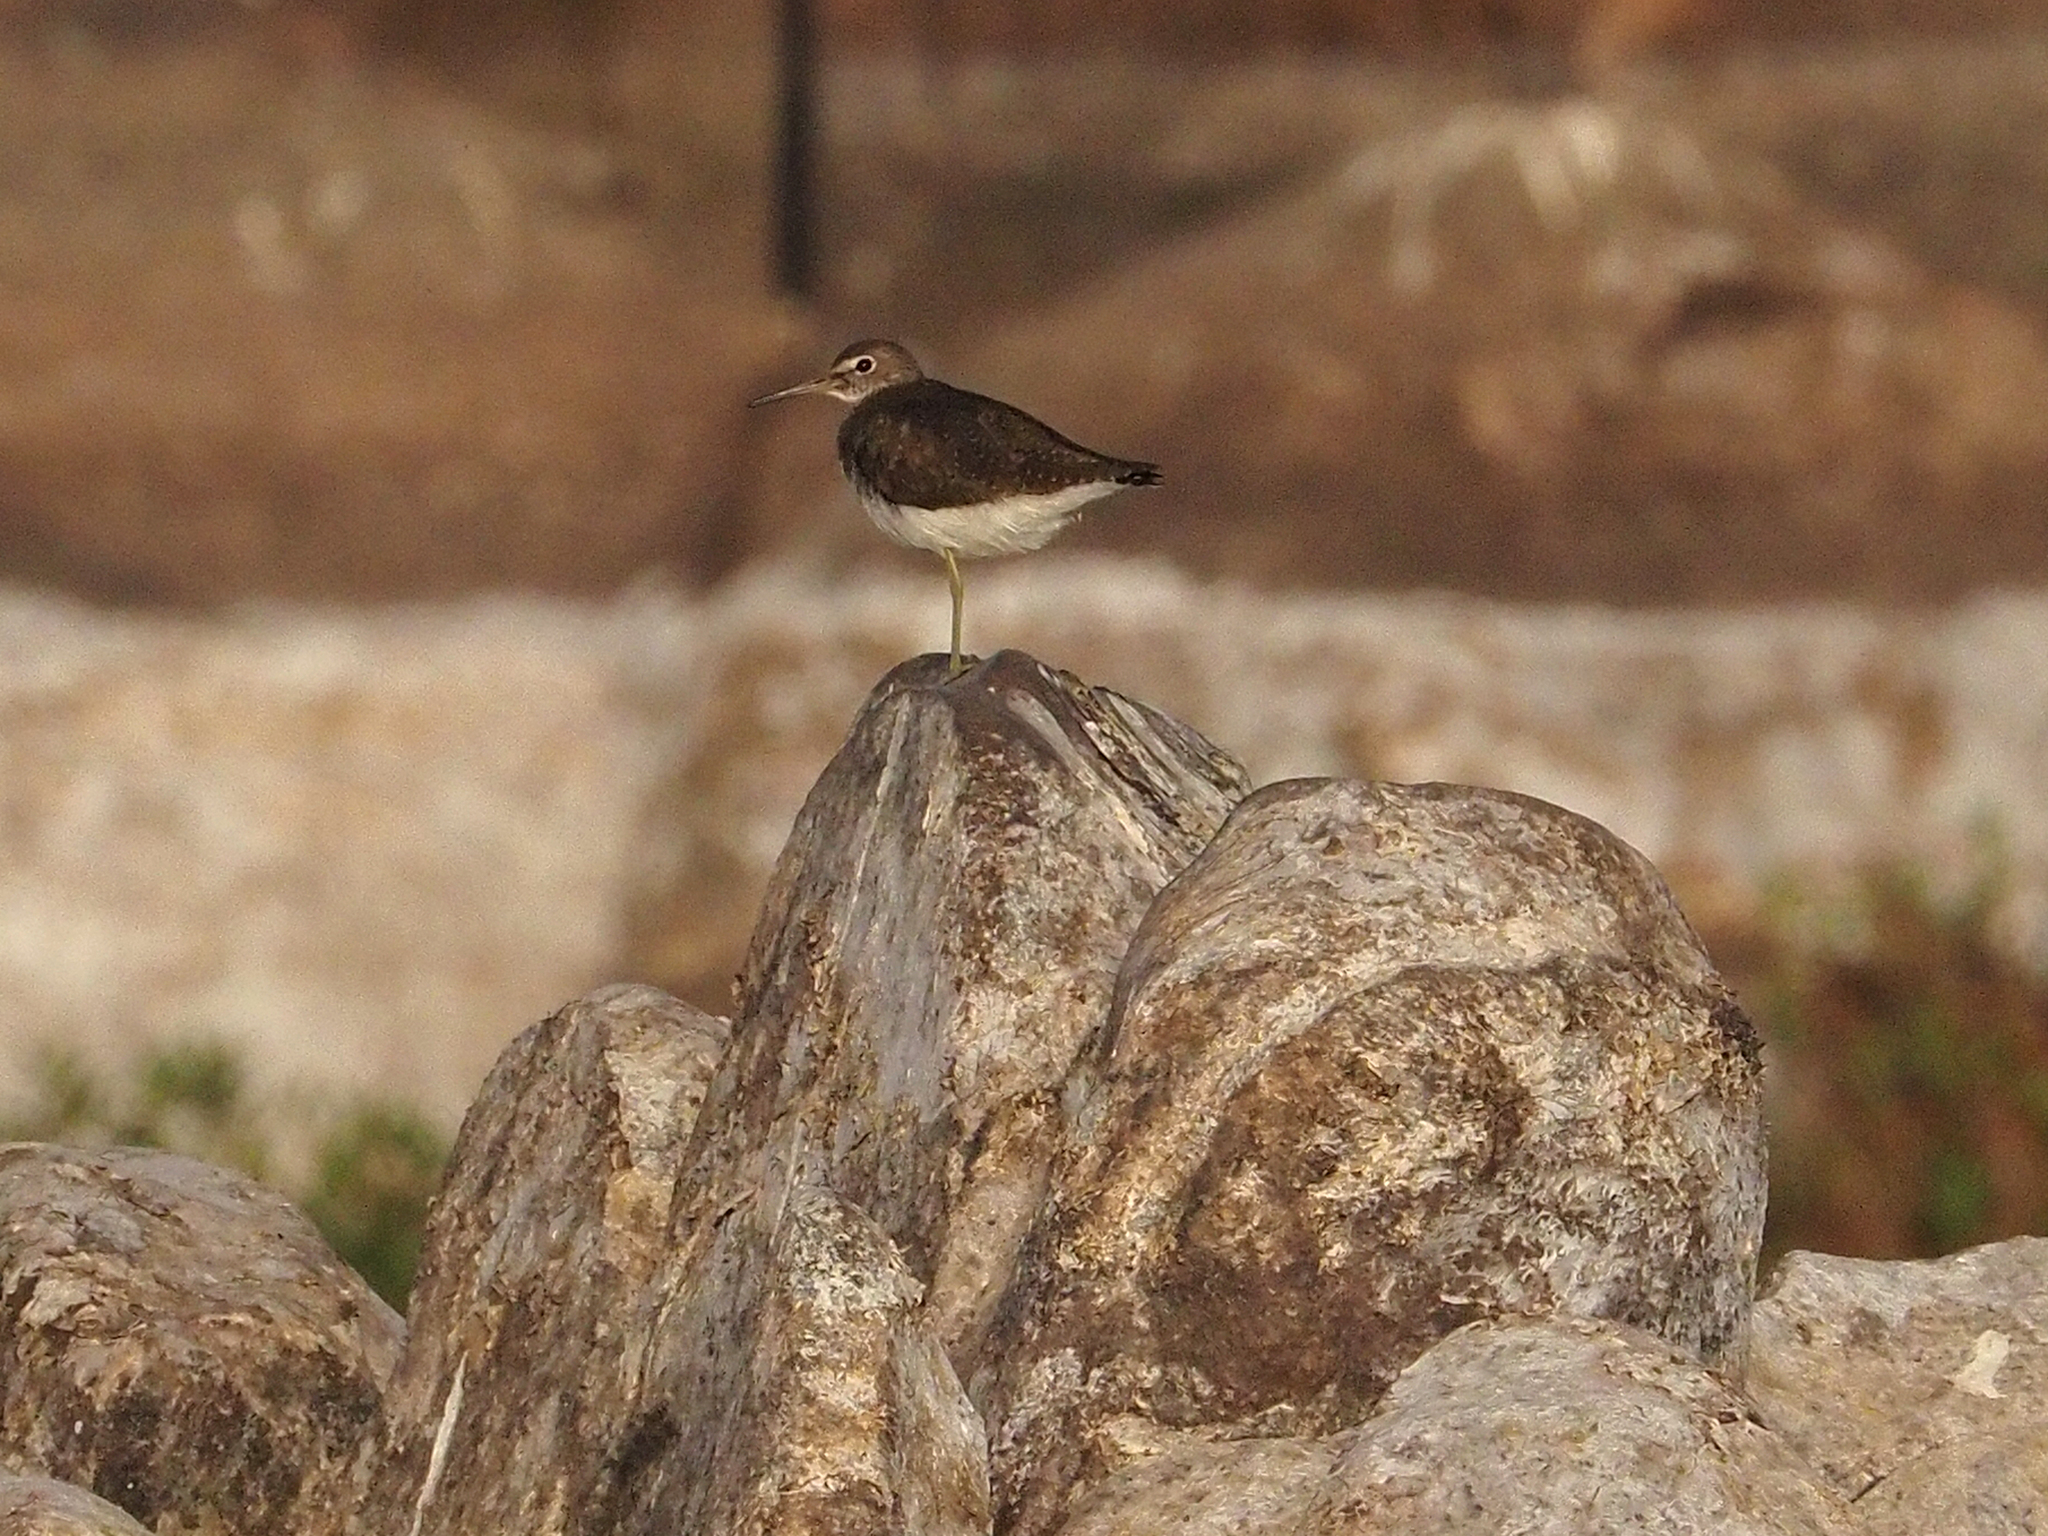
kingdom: Animalia
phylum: Chordata
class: Aves
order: Charadriiformes
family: Scolopacidae
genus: Tringa
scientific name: Tringa ochropus
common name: Green sandpiper
